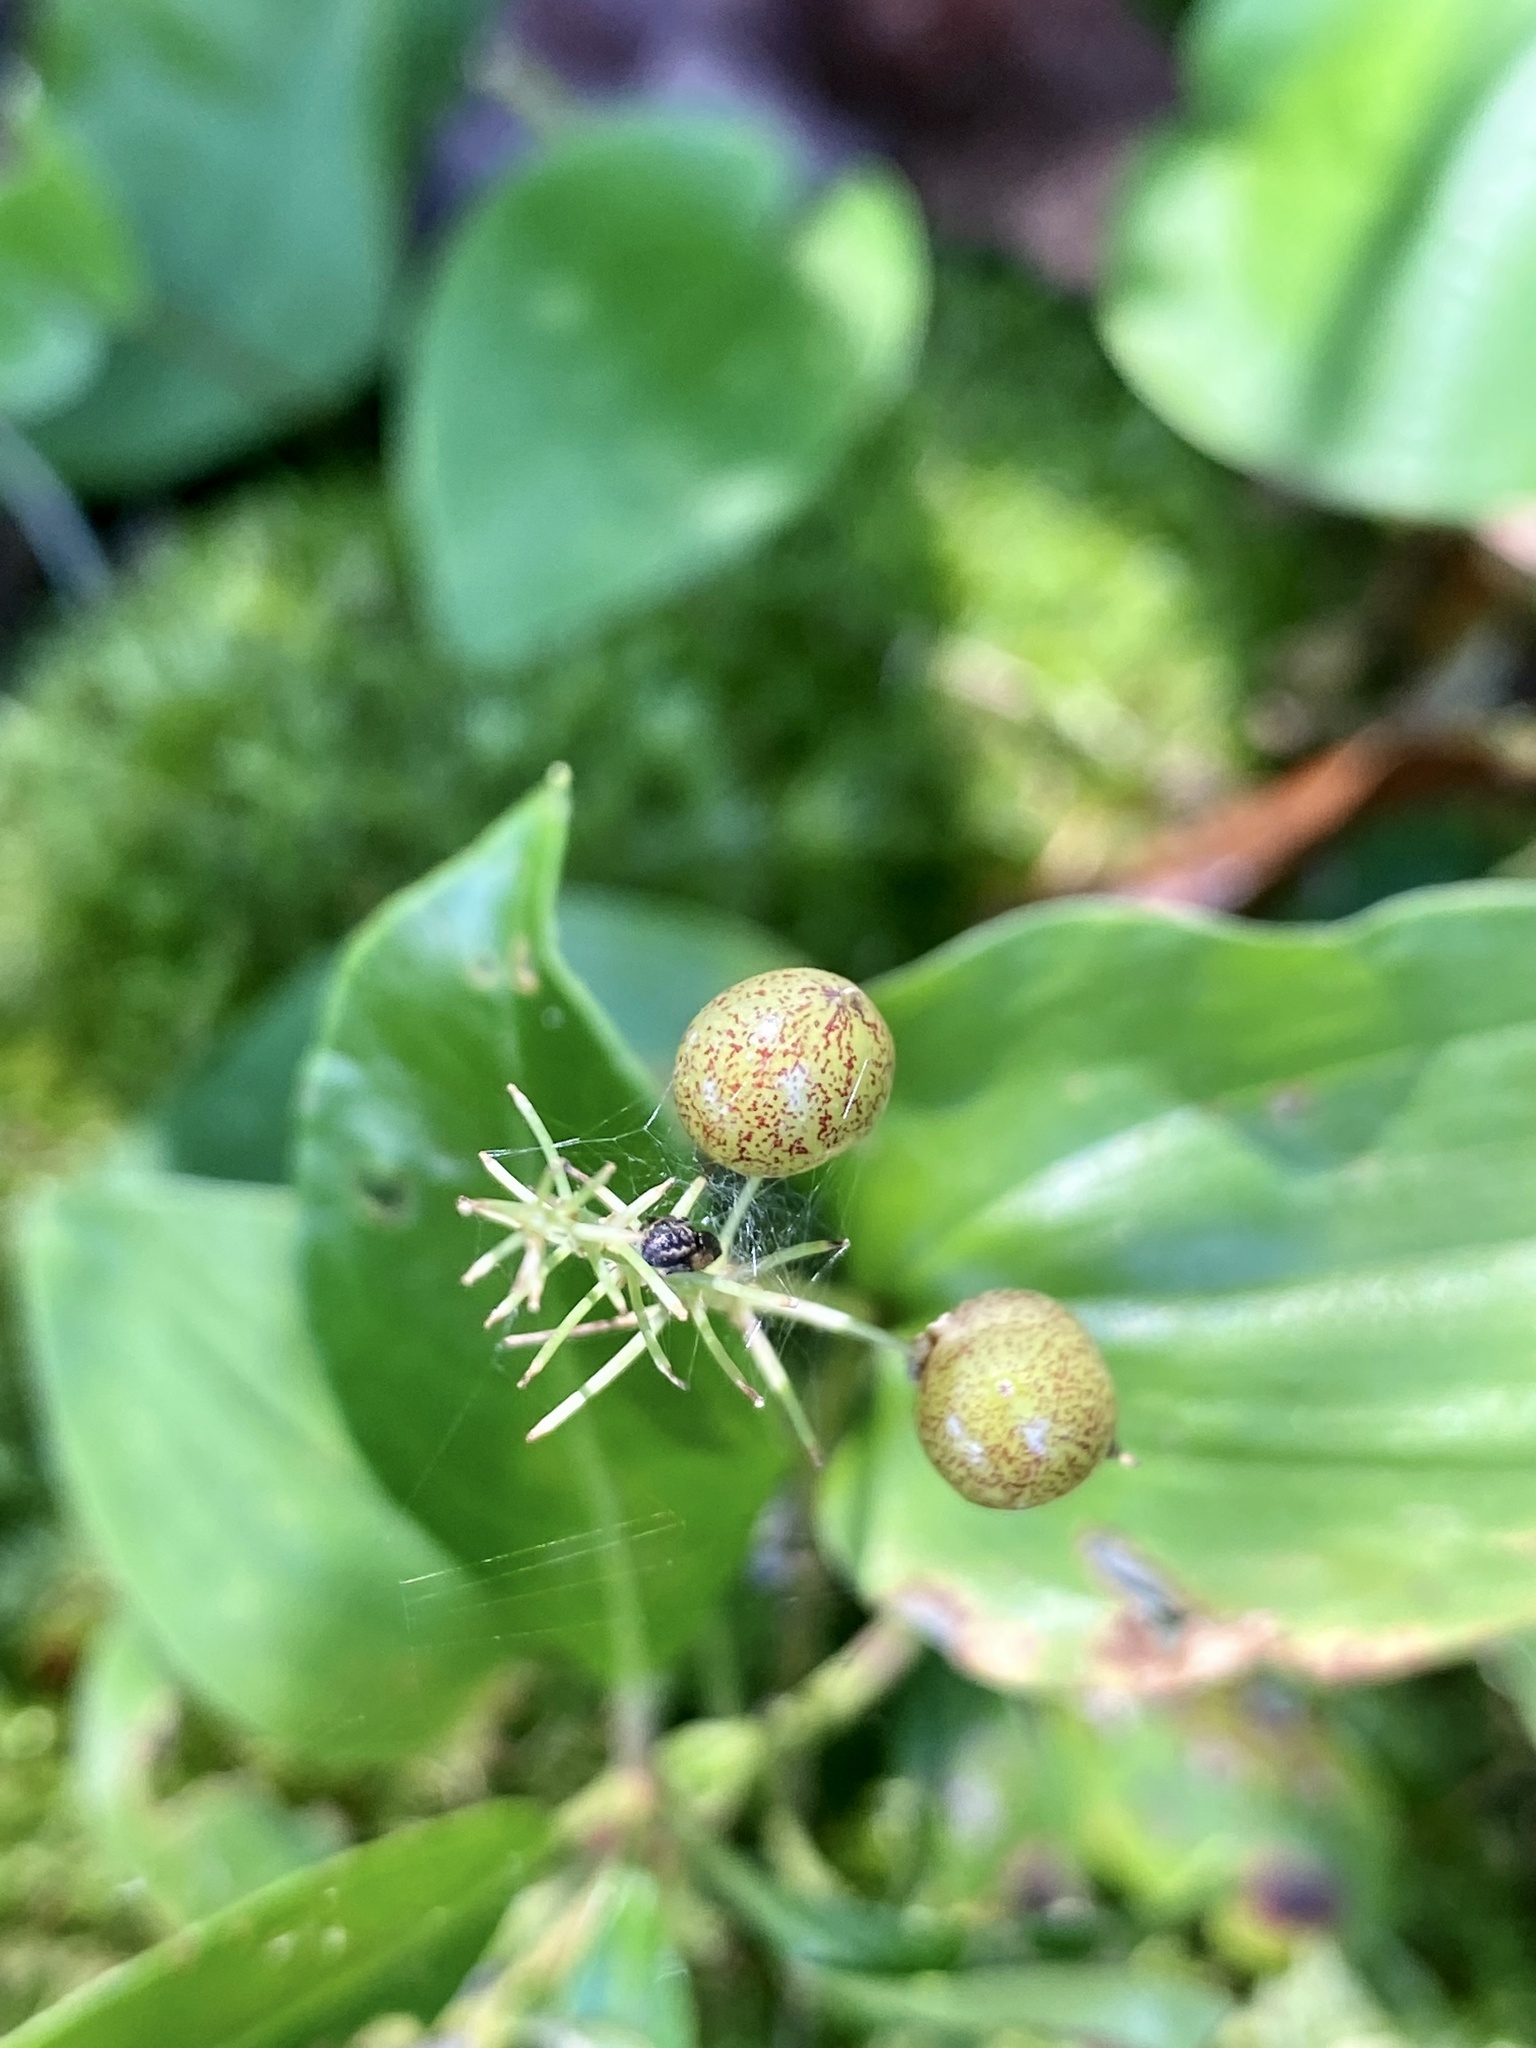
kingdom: Plantae
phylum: Tracheophyta
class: Liliopsida
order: Asparagales
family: Asparagaceae
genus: Maianthemum
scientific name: Maianthemum canadense
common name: False lily-of-the-valley
